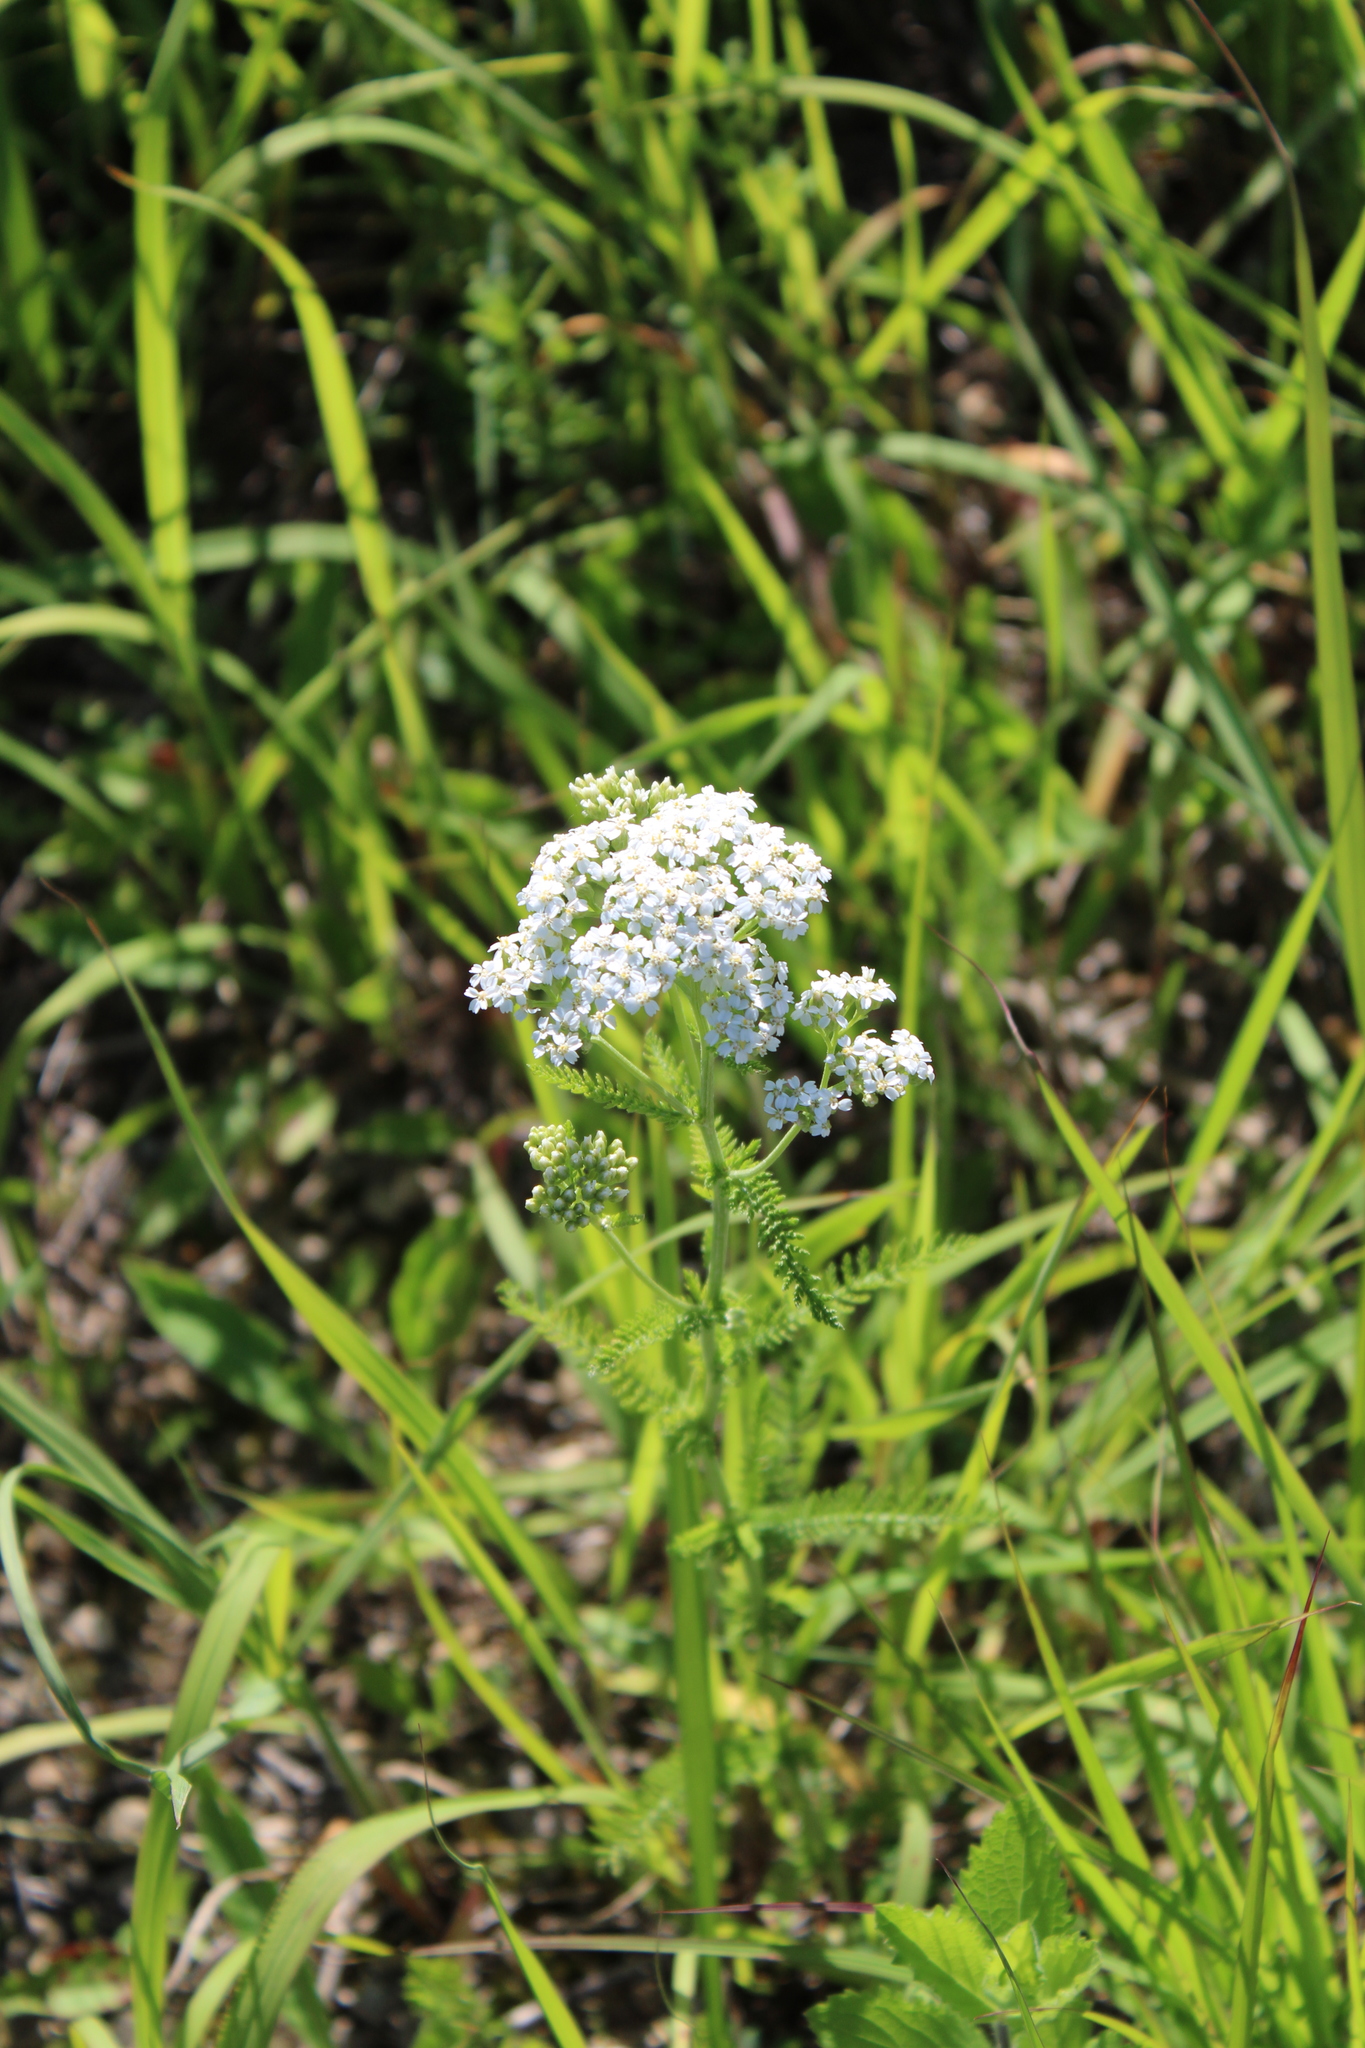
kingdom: Plantae
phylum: Tracheophyta
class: Magnoliopsida
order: Asterales
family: Asteraceae
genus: Achillea
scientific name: Achillea millefolium
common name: Yarrow
